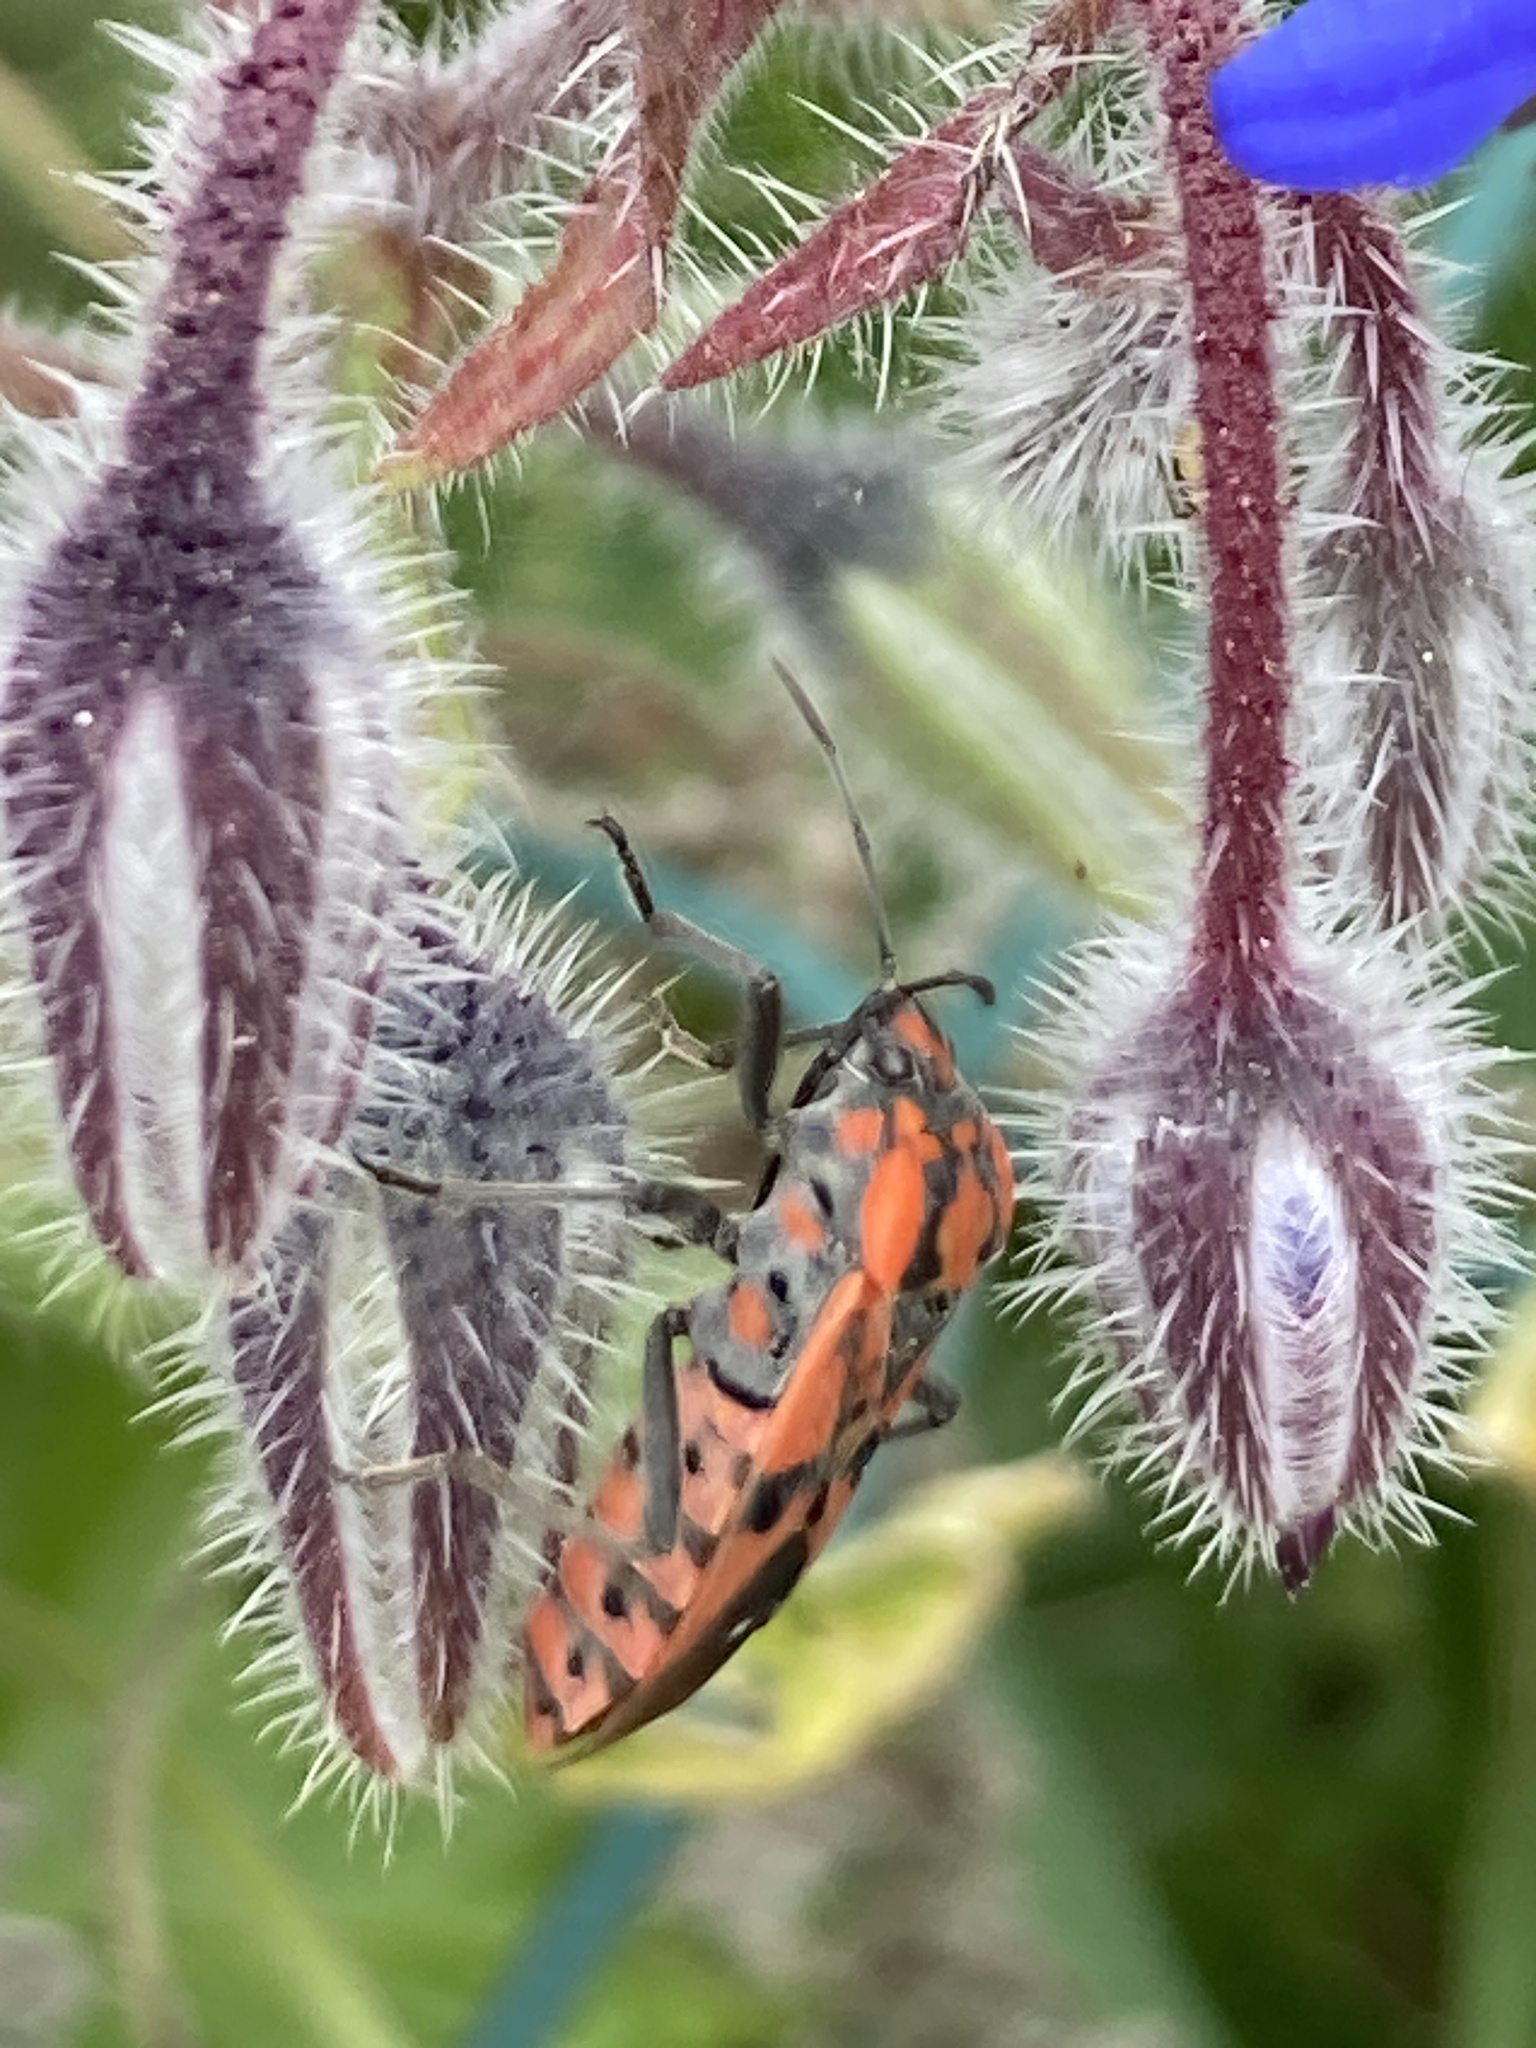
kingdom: Animalia
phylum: Arthropoda
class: Insecta
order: Hemiptera
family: Lygaeidae
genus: Spilostethus
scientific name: Spilostethus pandurus
